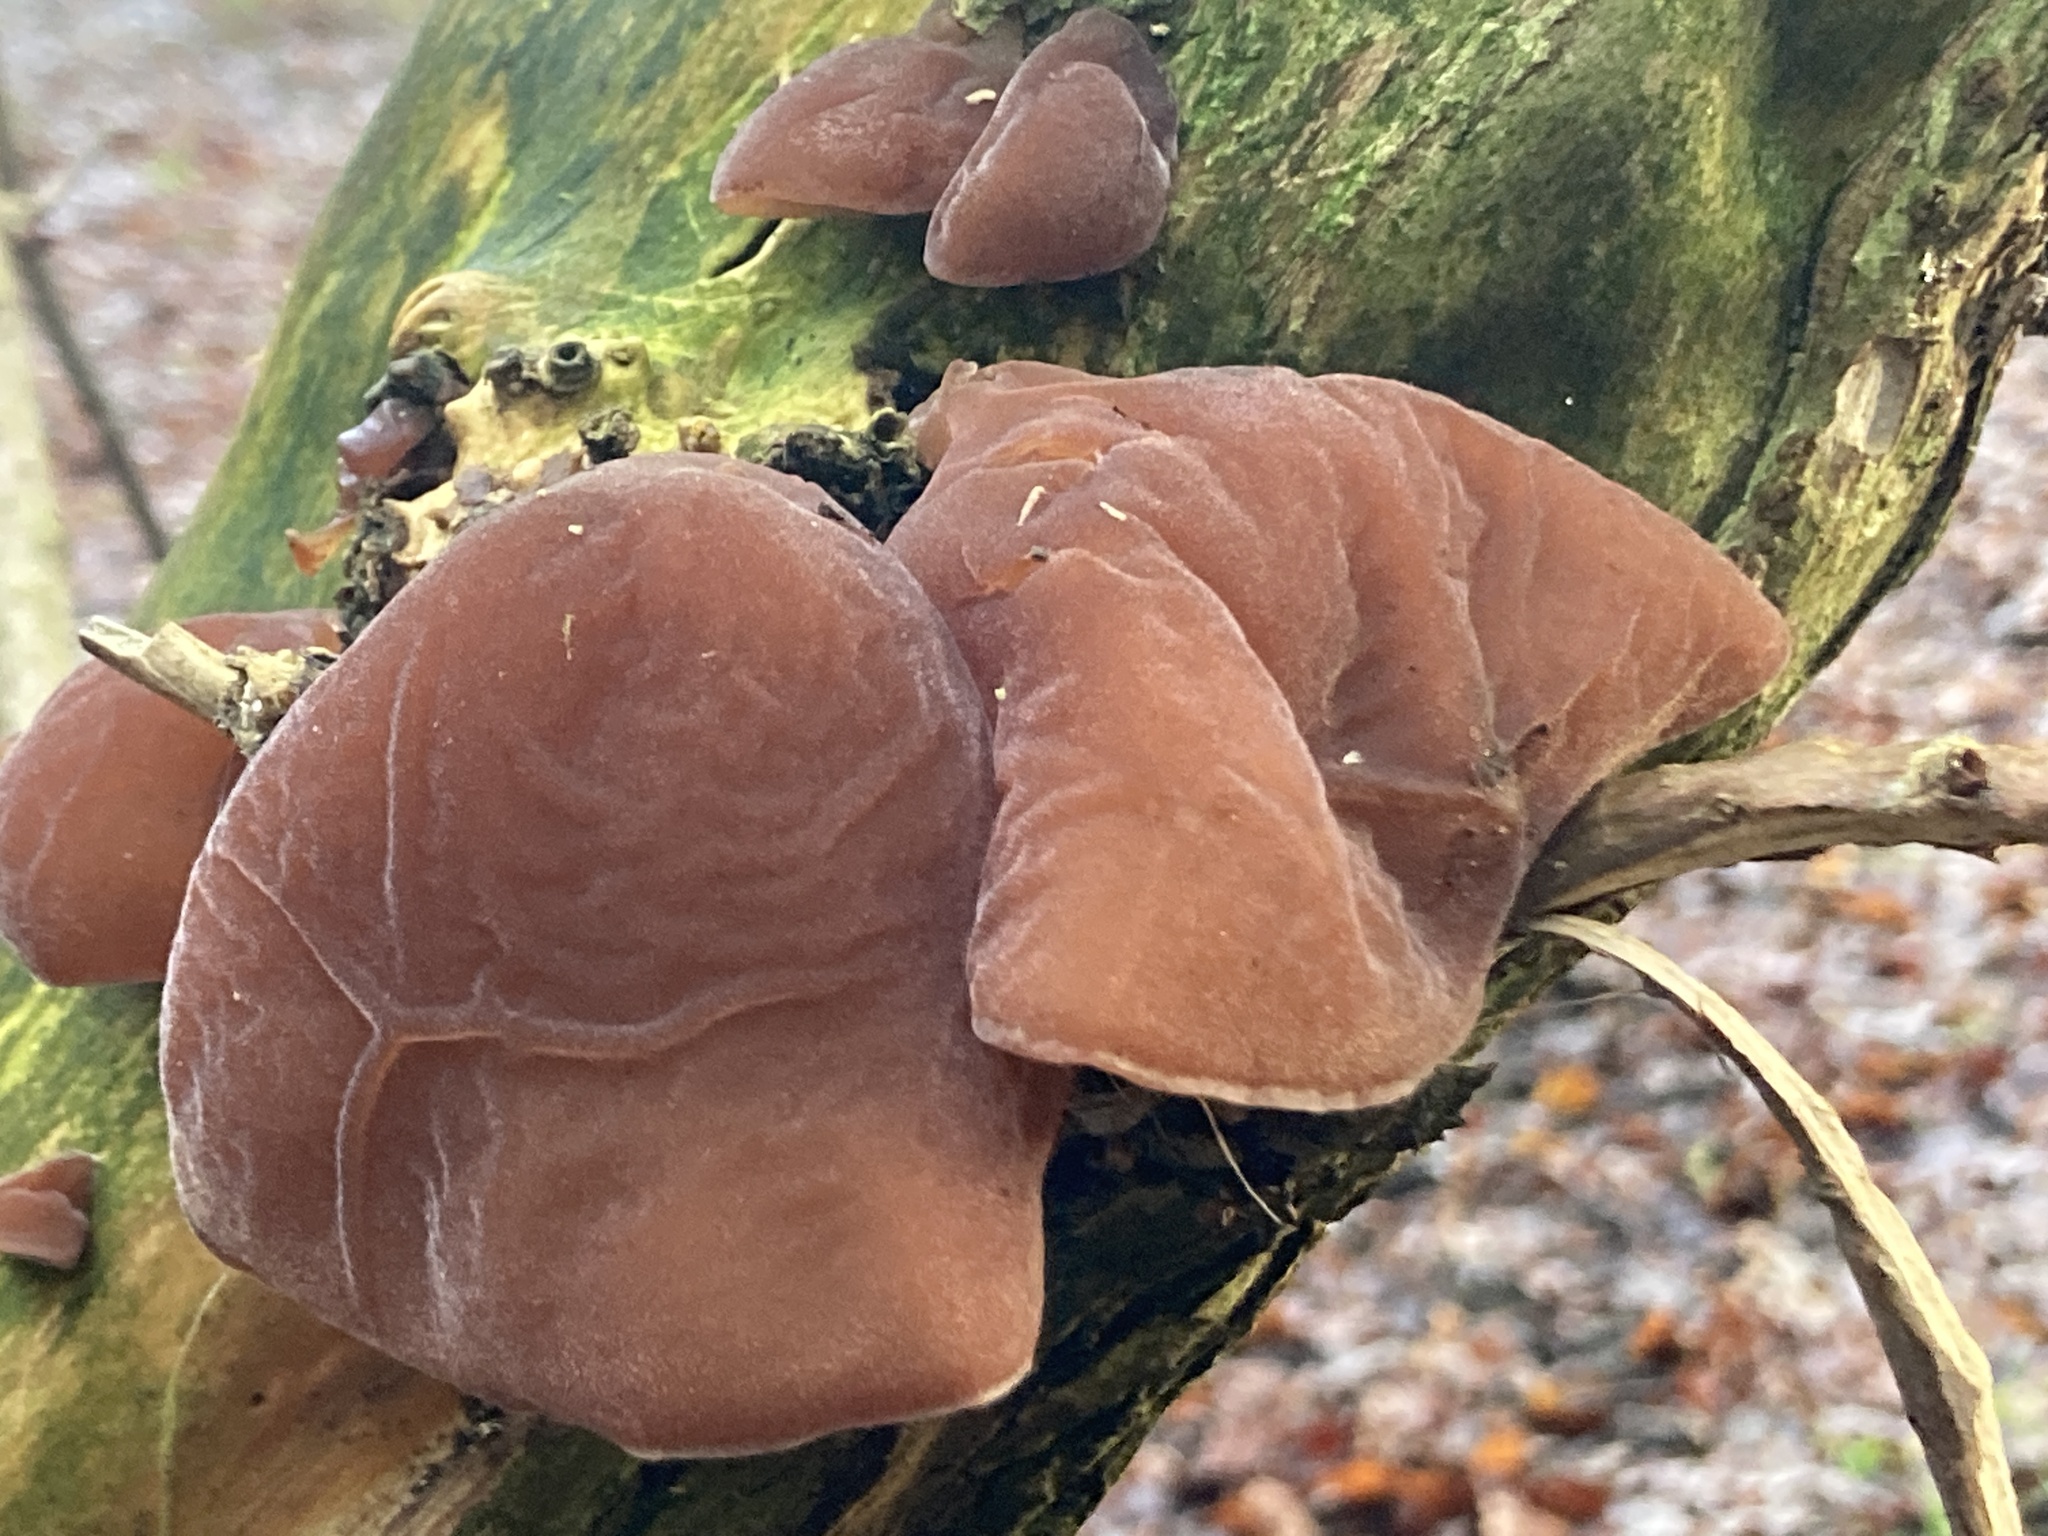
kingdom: Fungi
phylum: Basidiomycota
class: Agaricomycetes
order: Auriculariales
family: Auriculariaceae
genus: Auricularia
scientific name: Auricularia auricula-judae
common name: Jelly ear
